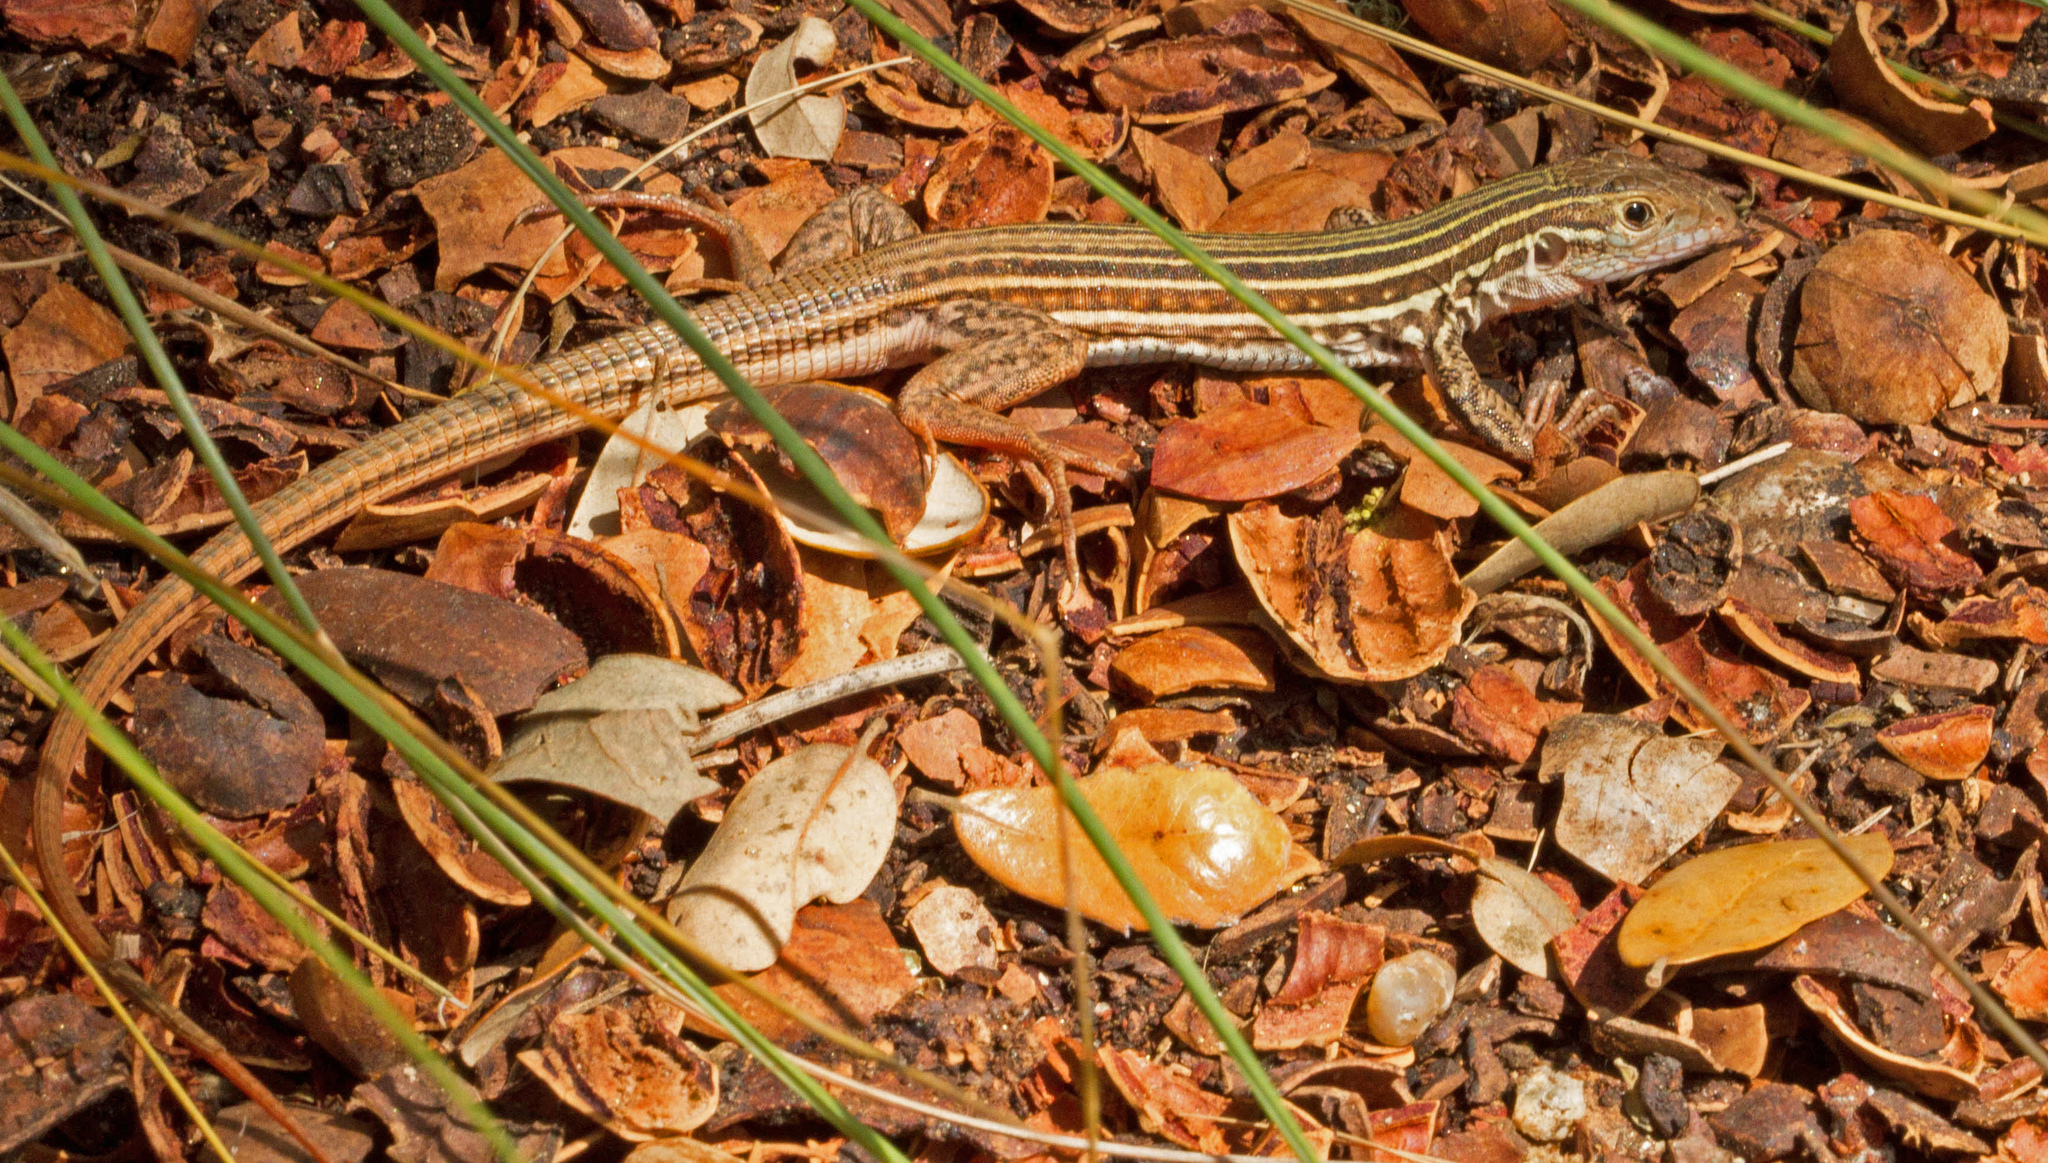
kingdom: Animalia
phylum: Chordata
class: Squamata
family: Teiidae
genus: Aspidoscelis
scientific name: Aspidoscelis gularis
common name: Eastern spotted whiptail
